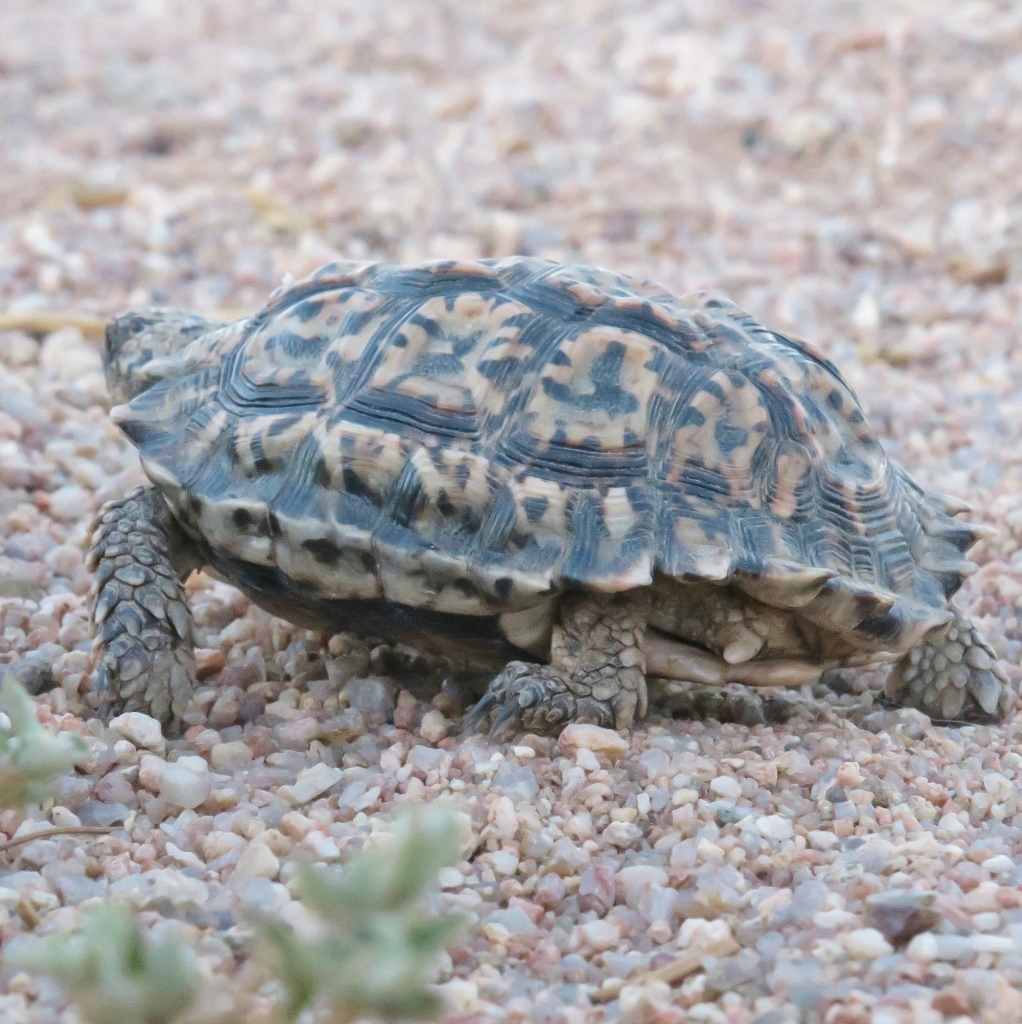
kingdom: Animalia
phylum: Chordata
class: Testudines
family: Testudinidae
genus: Chersobius
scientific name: Chersobius signatus
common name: Speckled cape tortoise
